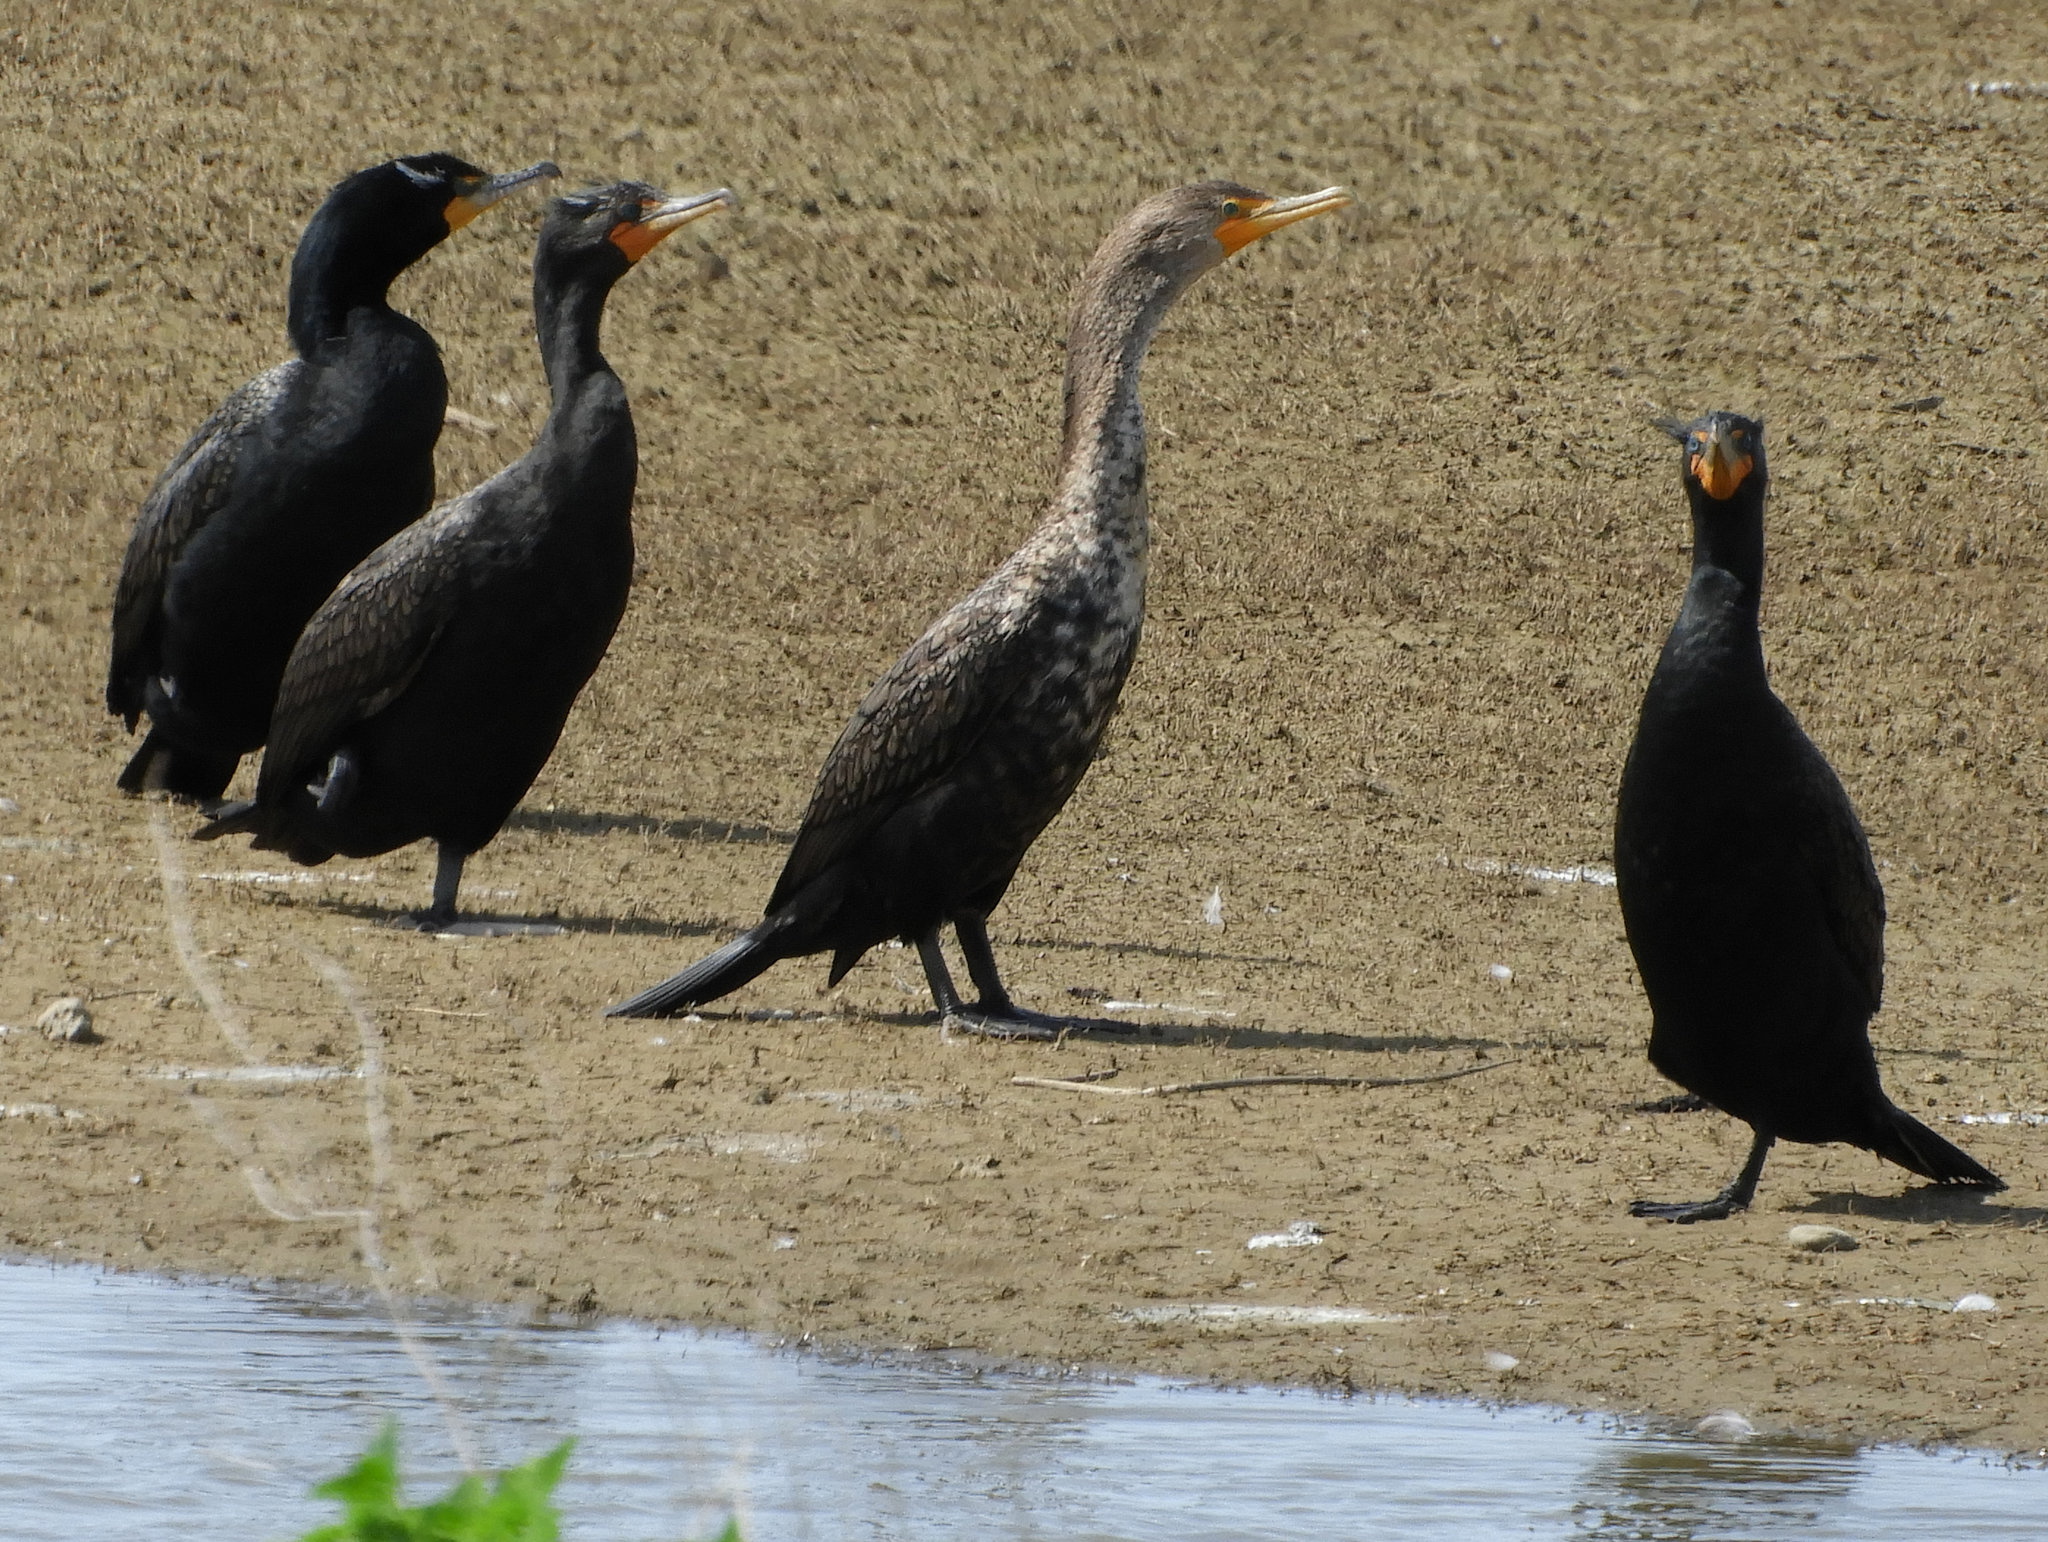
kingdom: Animalia
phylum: Chordata
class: Aves
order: Suliformes
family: Phalacrocoracidae
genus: Phalacrocorax
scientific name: Phalacrocorax auritus
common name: Double-crested cormorant
